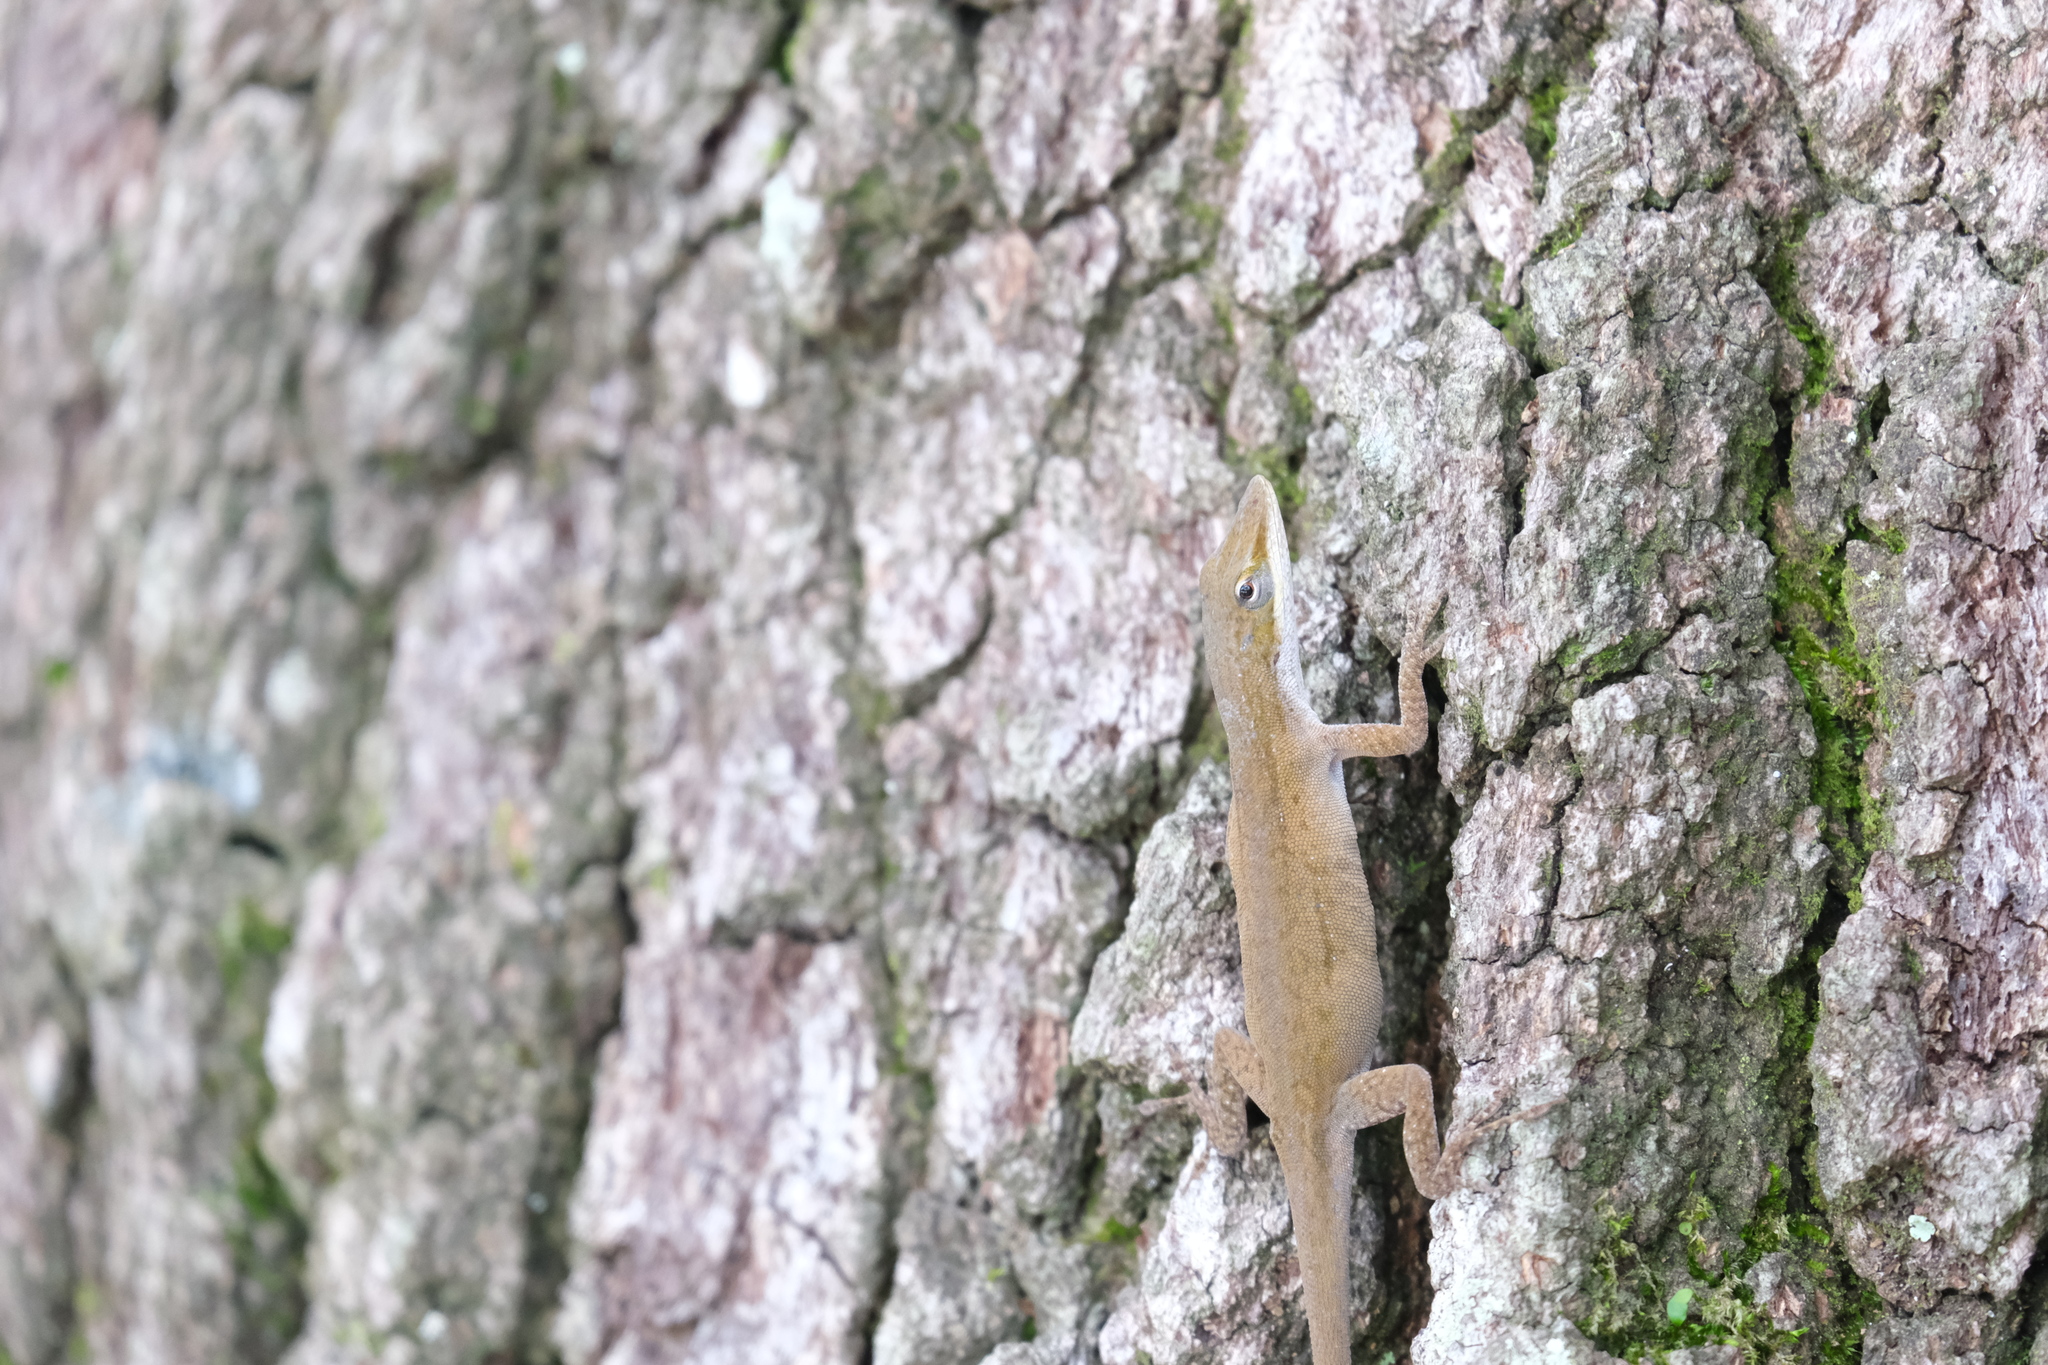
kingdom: Animalia
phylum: Chordata
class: Squamata
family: Dactyloidae
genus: Anolis
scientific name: Anolis carolinensis
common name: Green anole
